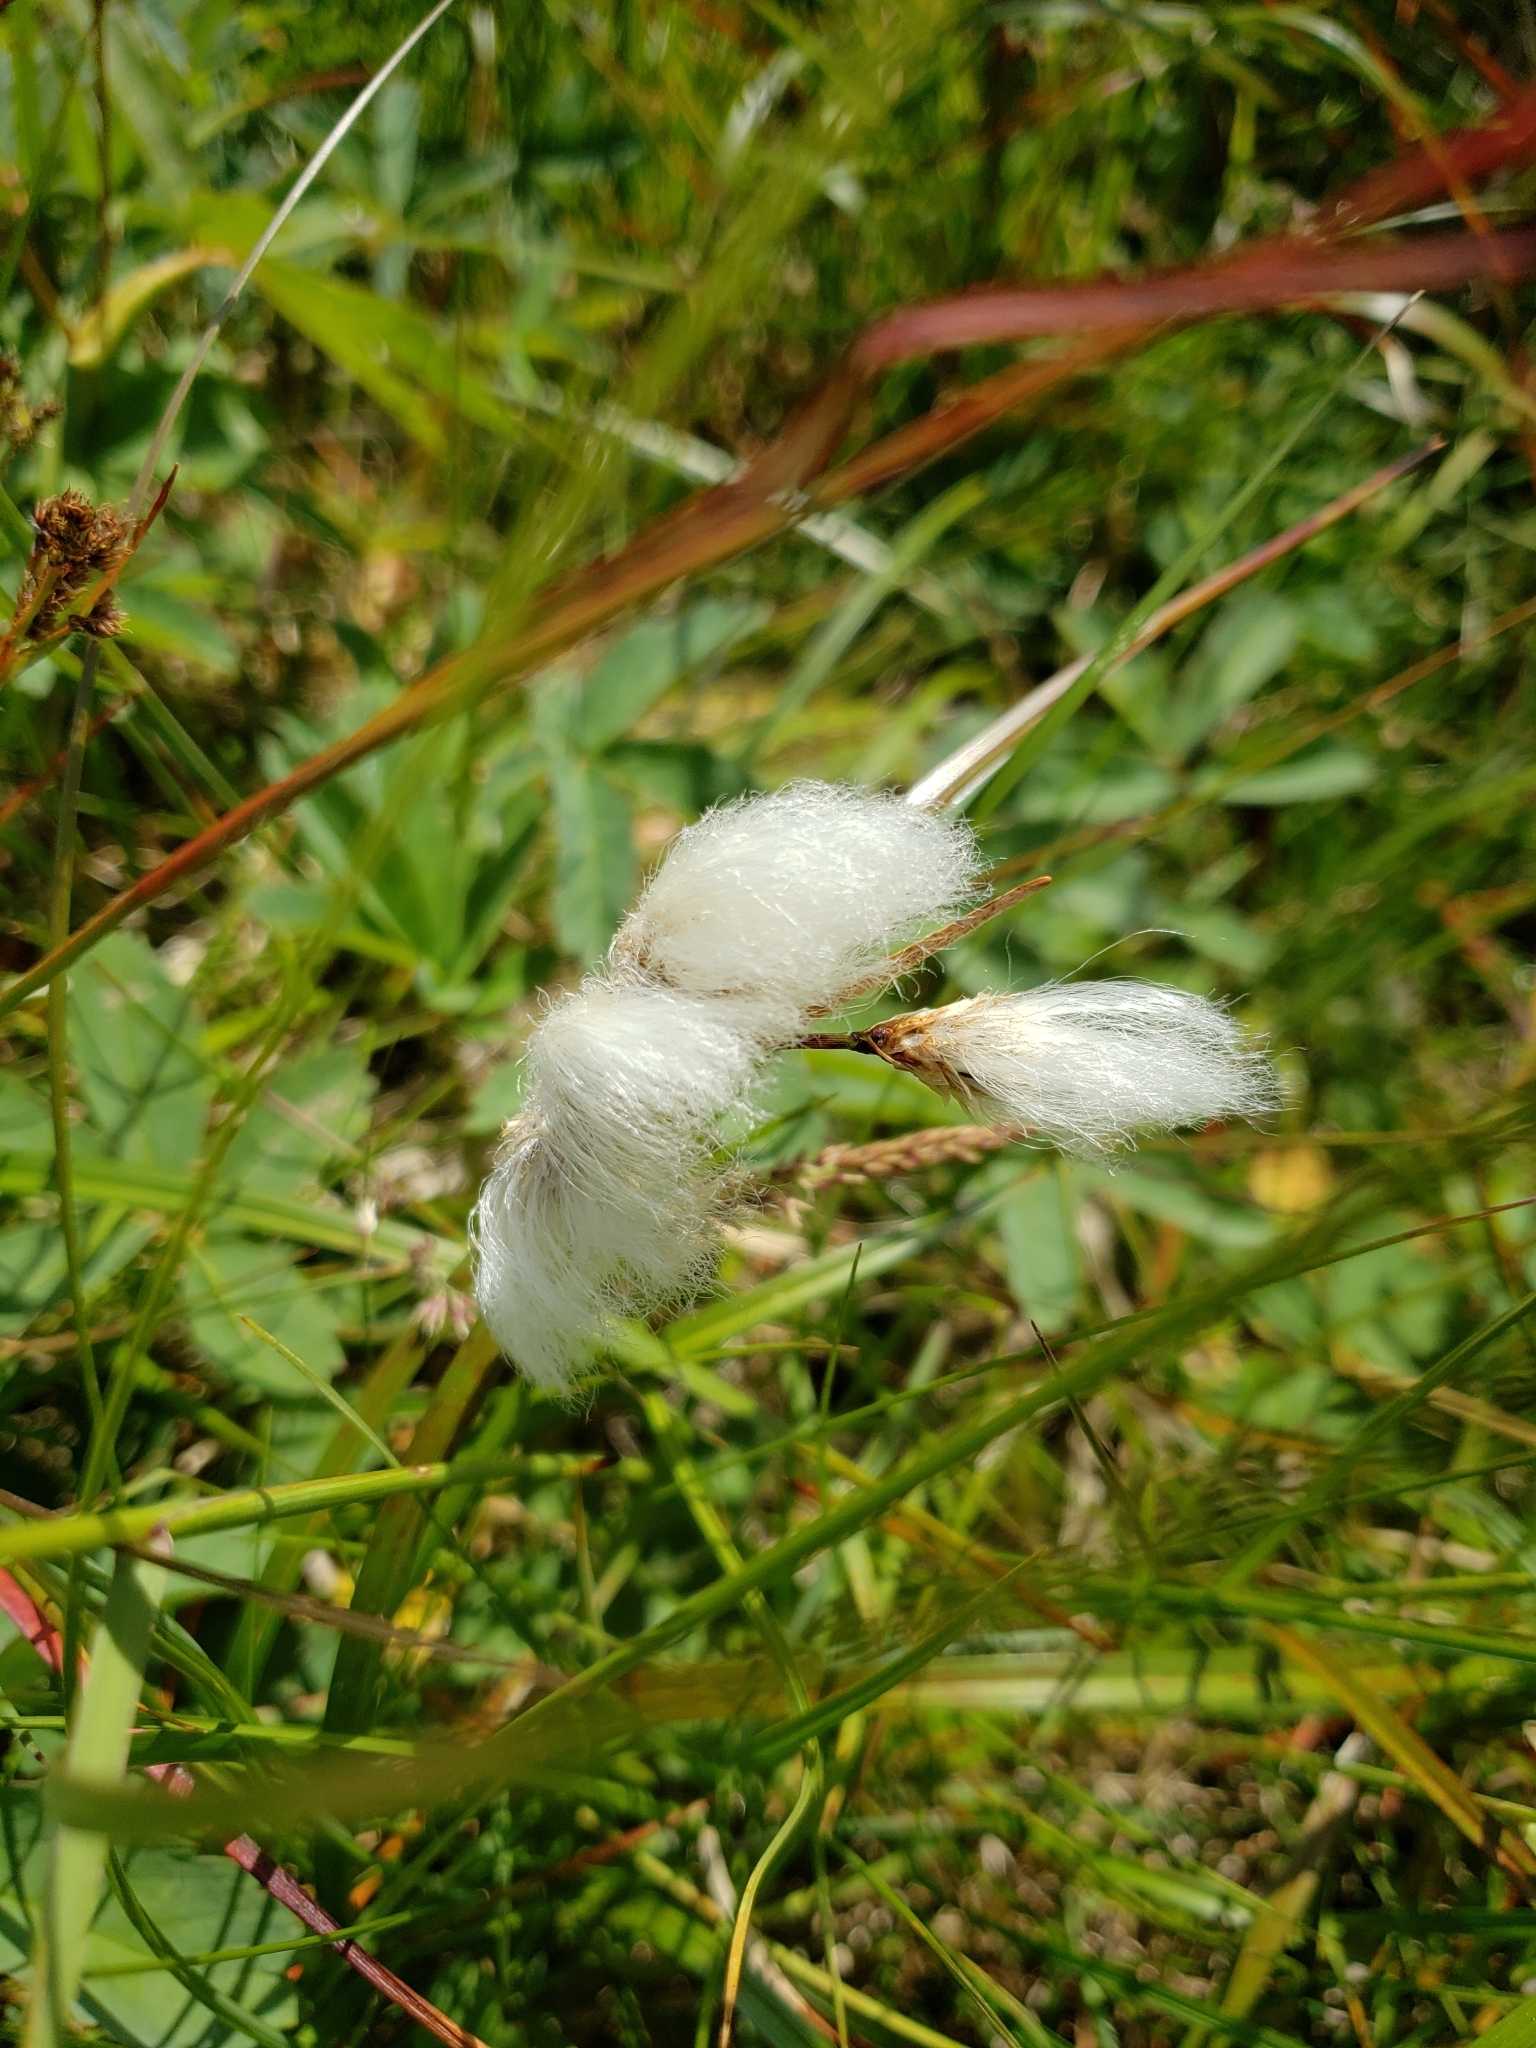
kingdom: Plantae
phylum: Tracheophyta
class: Liliopsida
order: Poales
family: Cyperaceae
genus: Eriophorum
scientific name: Eriophorum angustifolium
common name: Common cottongrass
